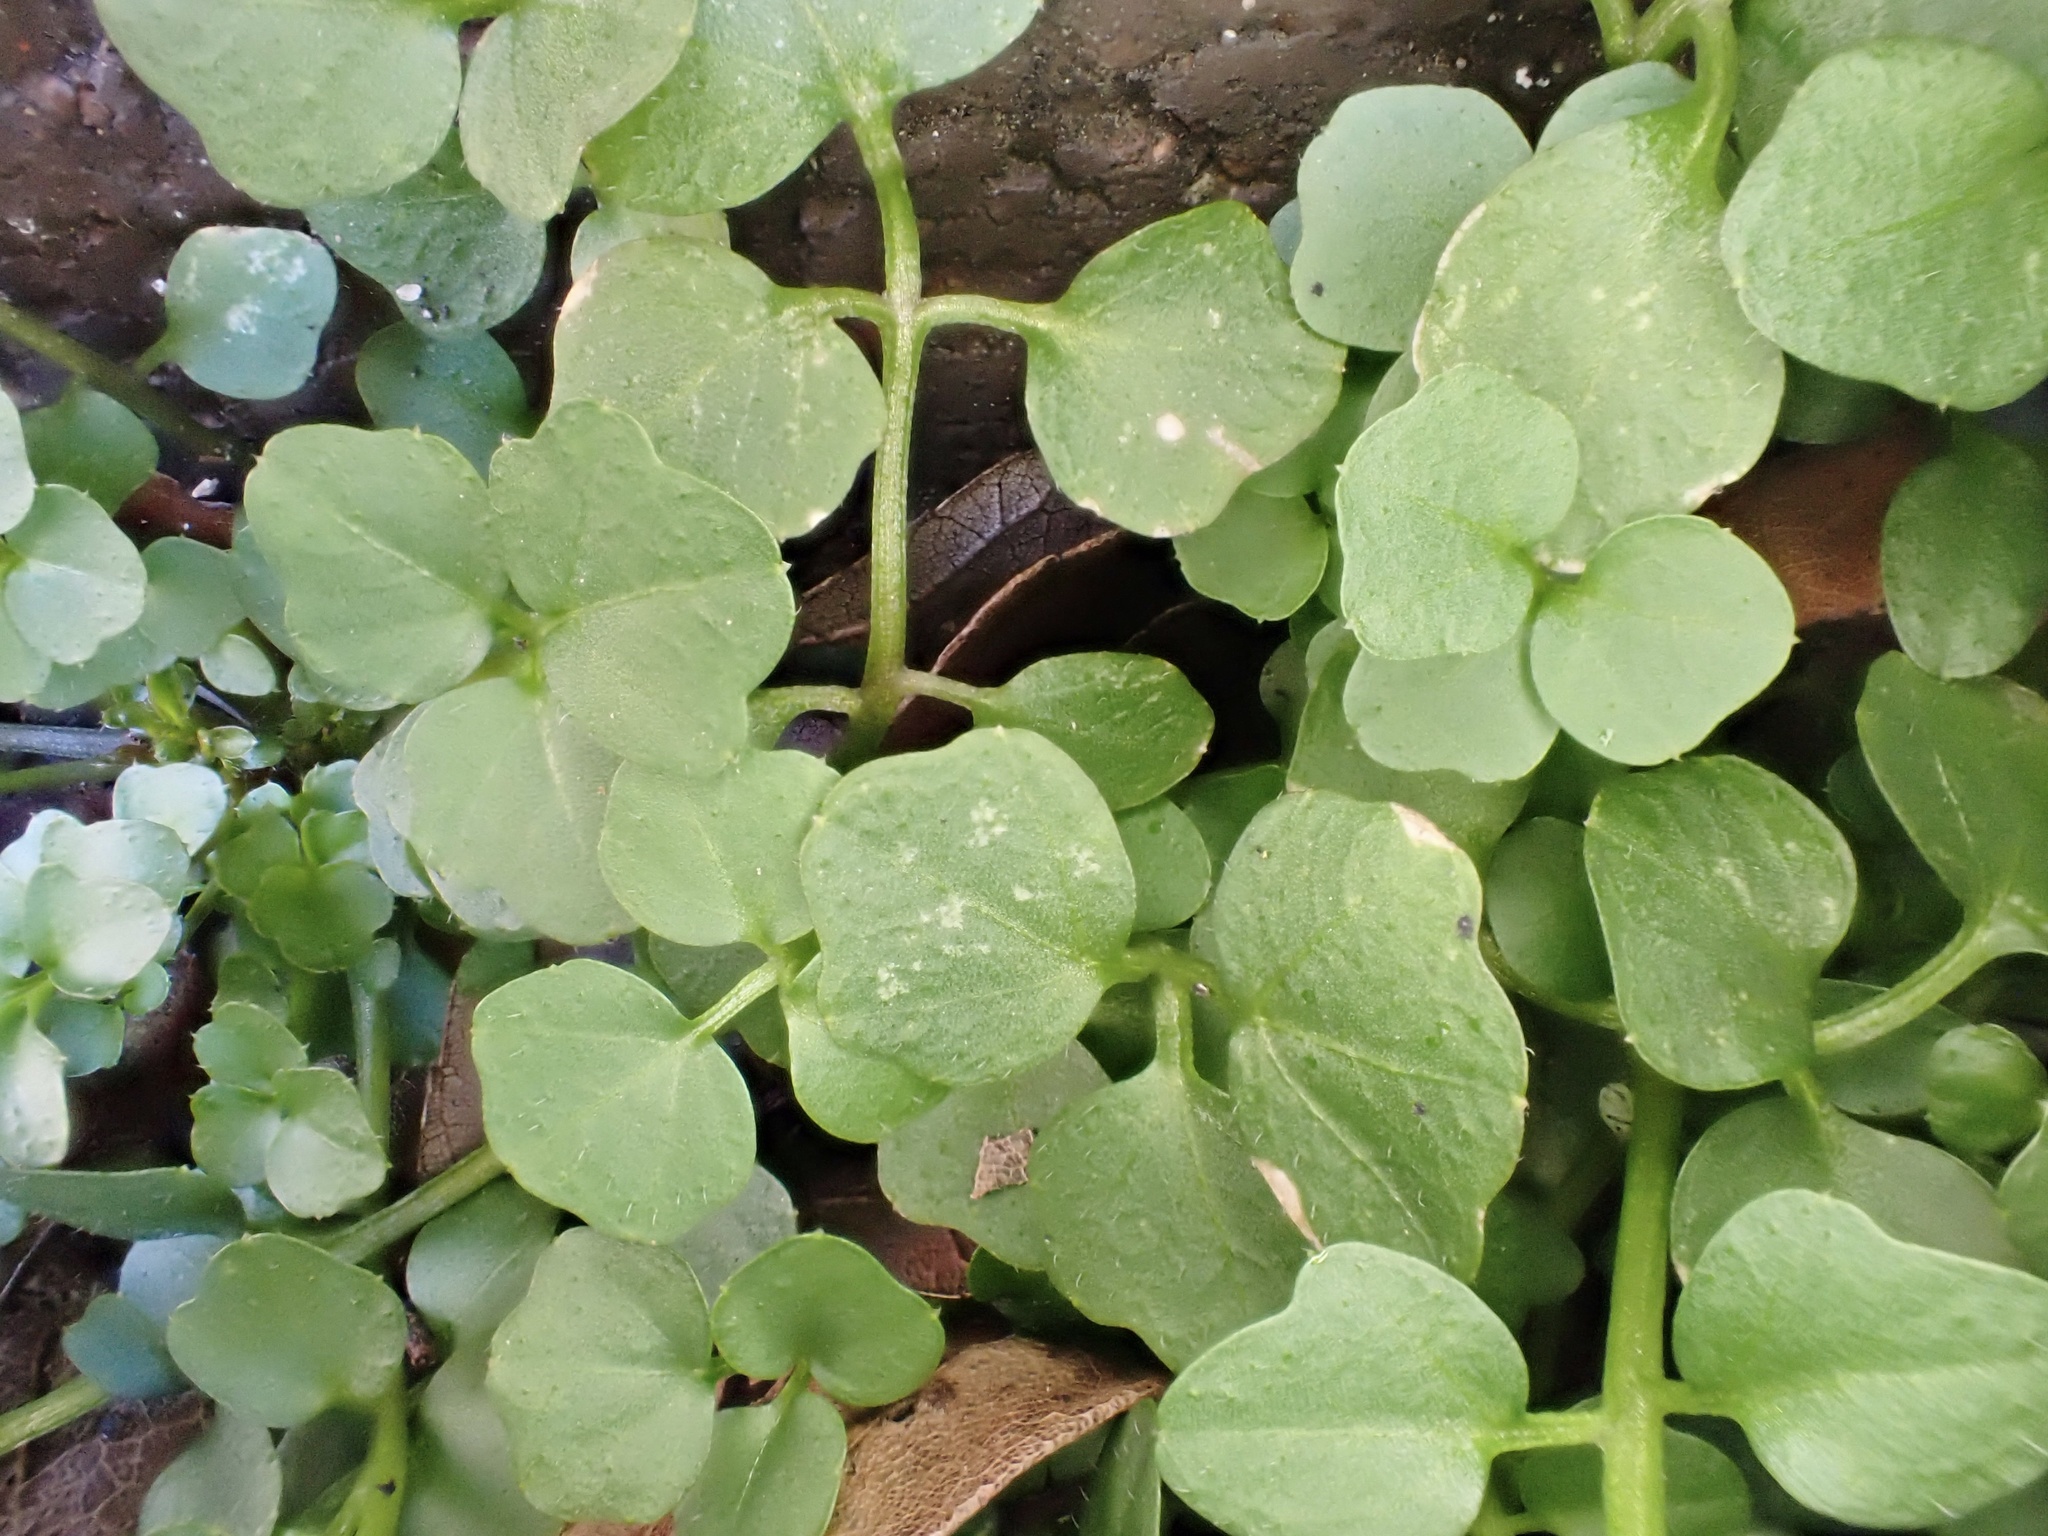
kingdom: Plantae
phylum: Tracheophyta
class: Magnoliopsida
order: Brassicales
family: Brassicaceae
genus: Cardamine
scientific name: Cardamine hirsuta
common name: Hairy bittercress
